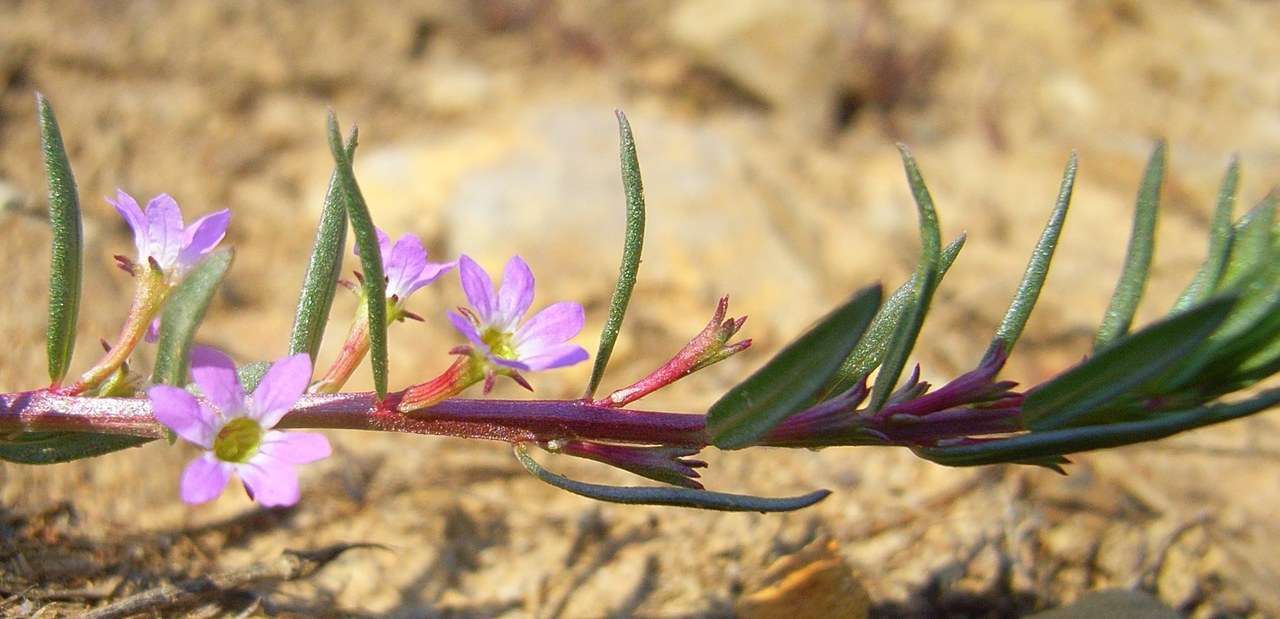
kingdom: Plantae
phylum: Tracheophyta
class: Magnoliopsida
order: Myrtales
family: Lythraceae
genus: Lythrum
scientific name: Lythrum hyssopifolia
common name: Grass-poly
